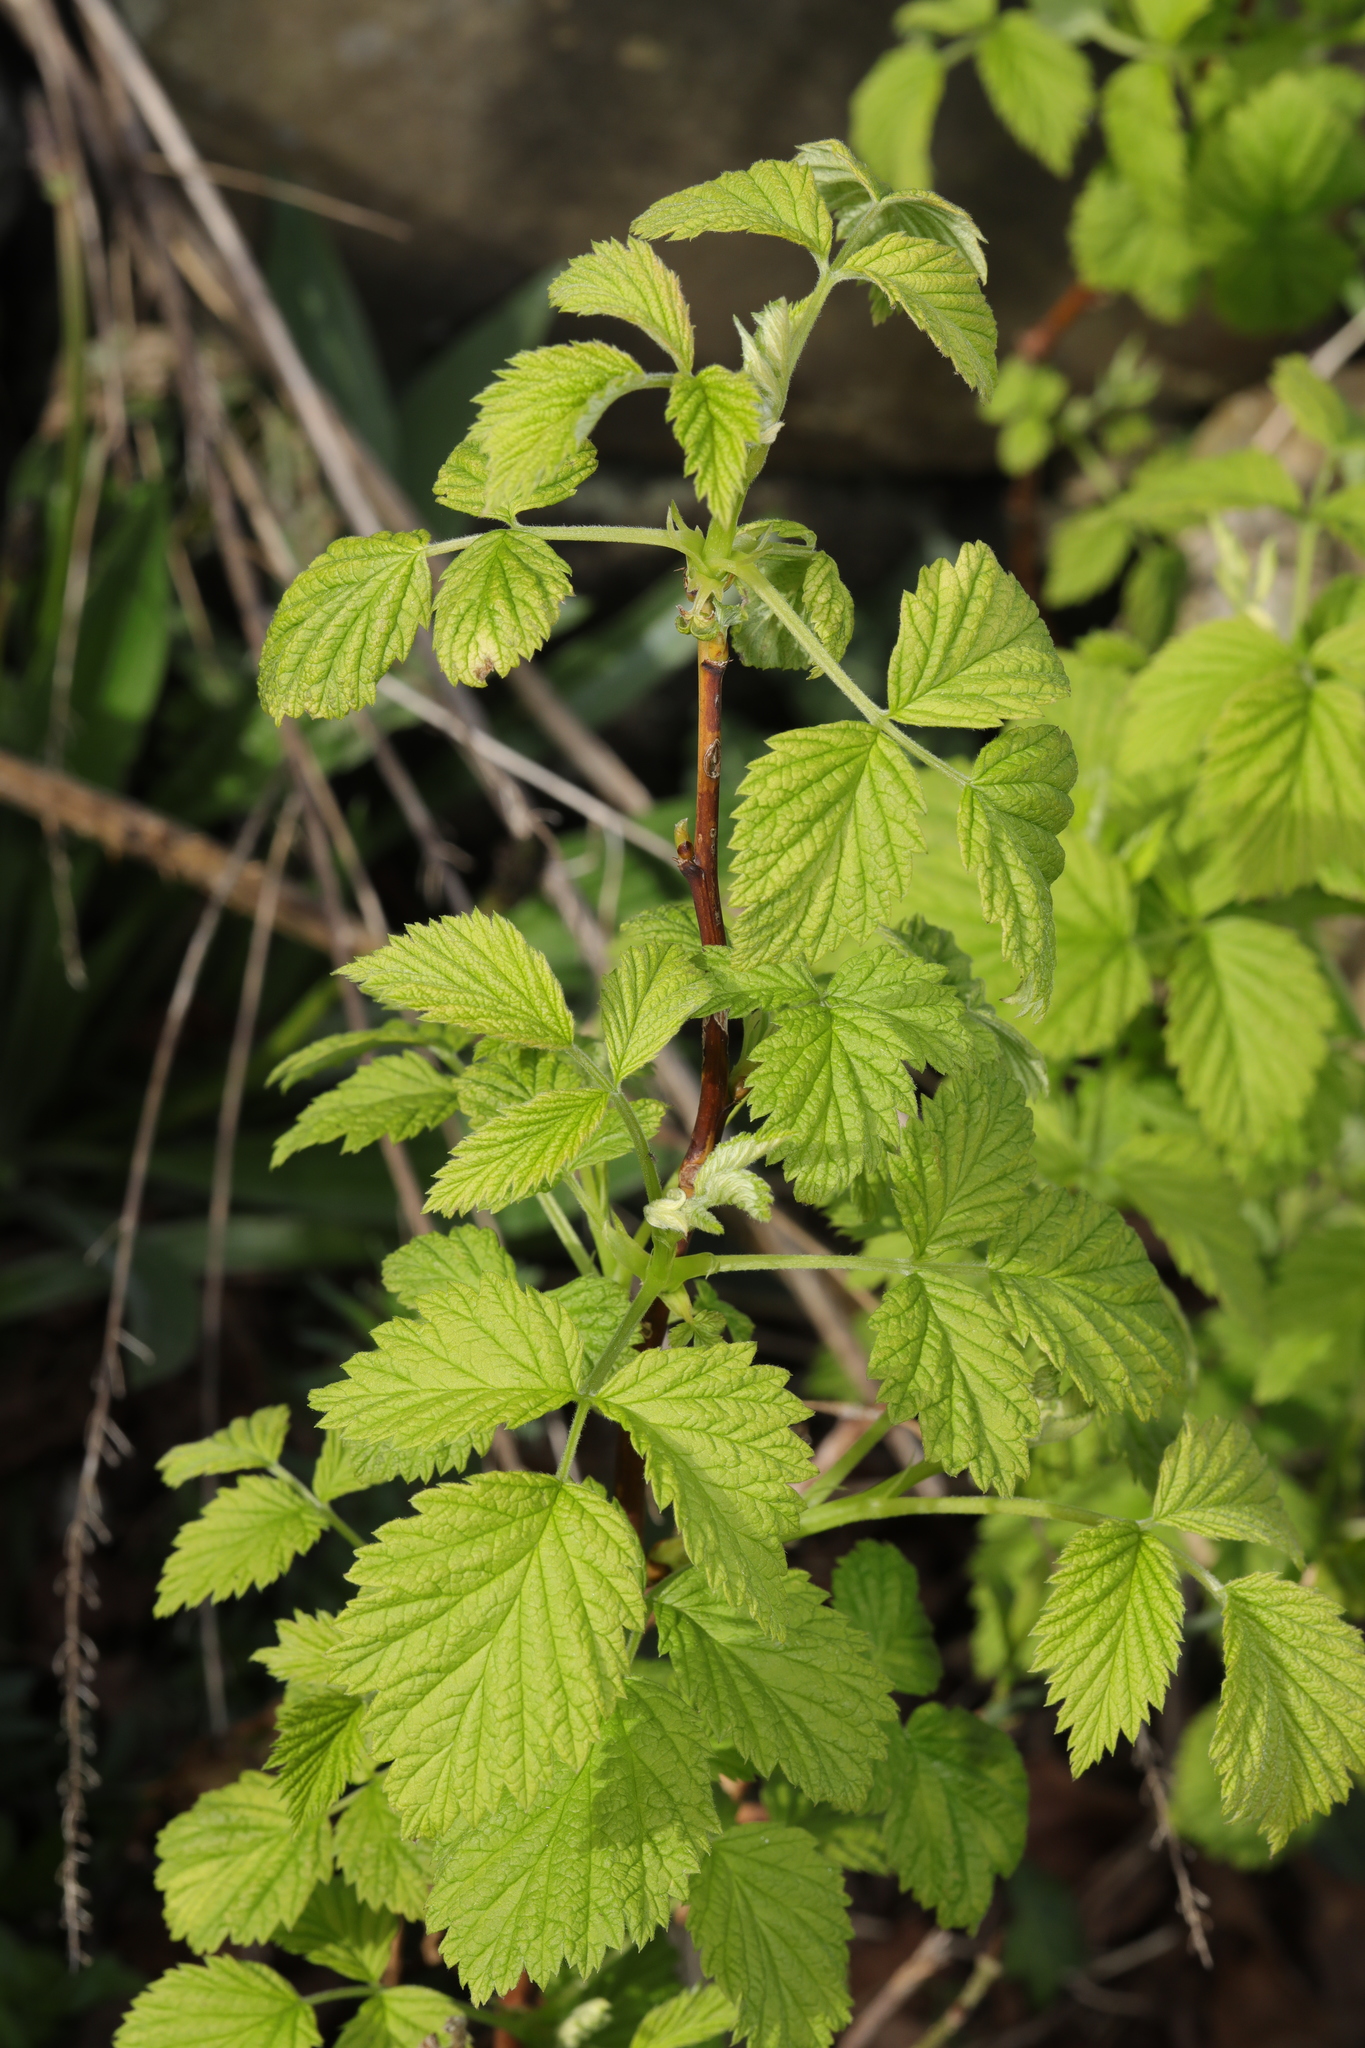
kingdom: Plantae
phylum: Tracheophyta
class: Magnoliopsida
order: Rosales
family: Rosaceae
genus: Rubus
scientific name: Rubus idaeus
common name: Raspberry
